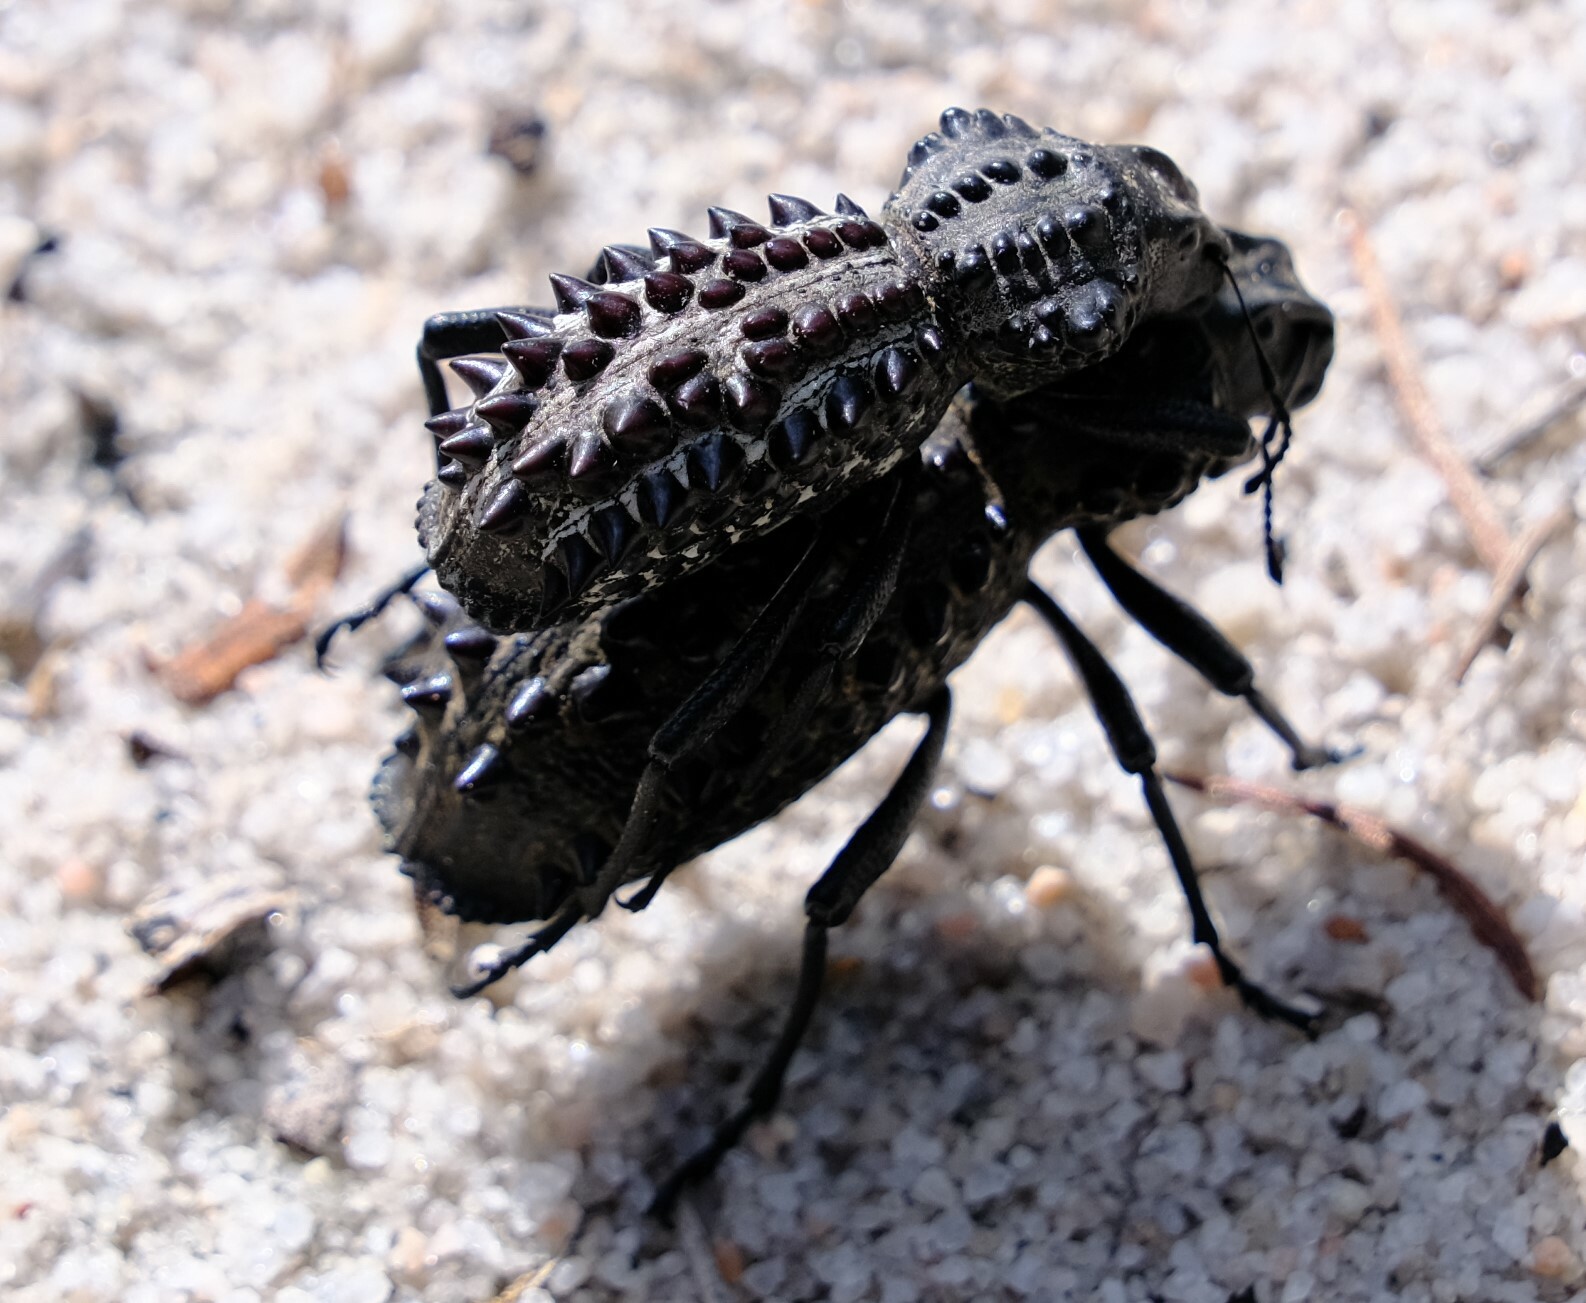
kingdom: Animalia
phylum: Arthropoda
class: Insecta
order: Coleoptera
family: Curculionidae
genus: Gagatophorus
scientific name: Gagatophorus
